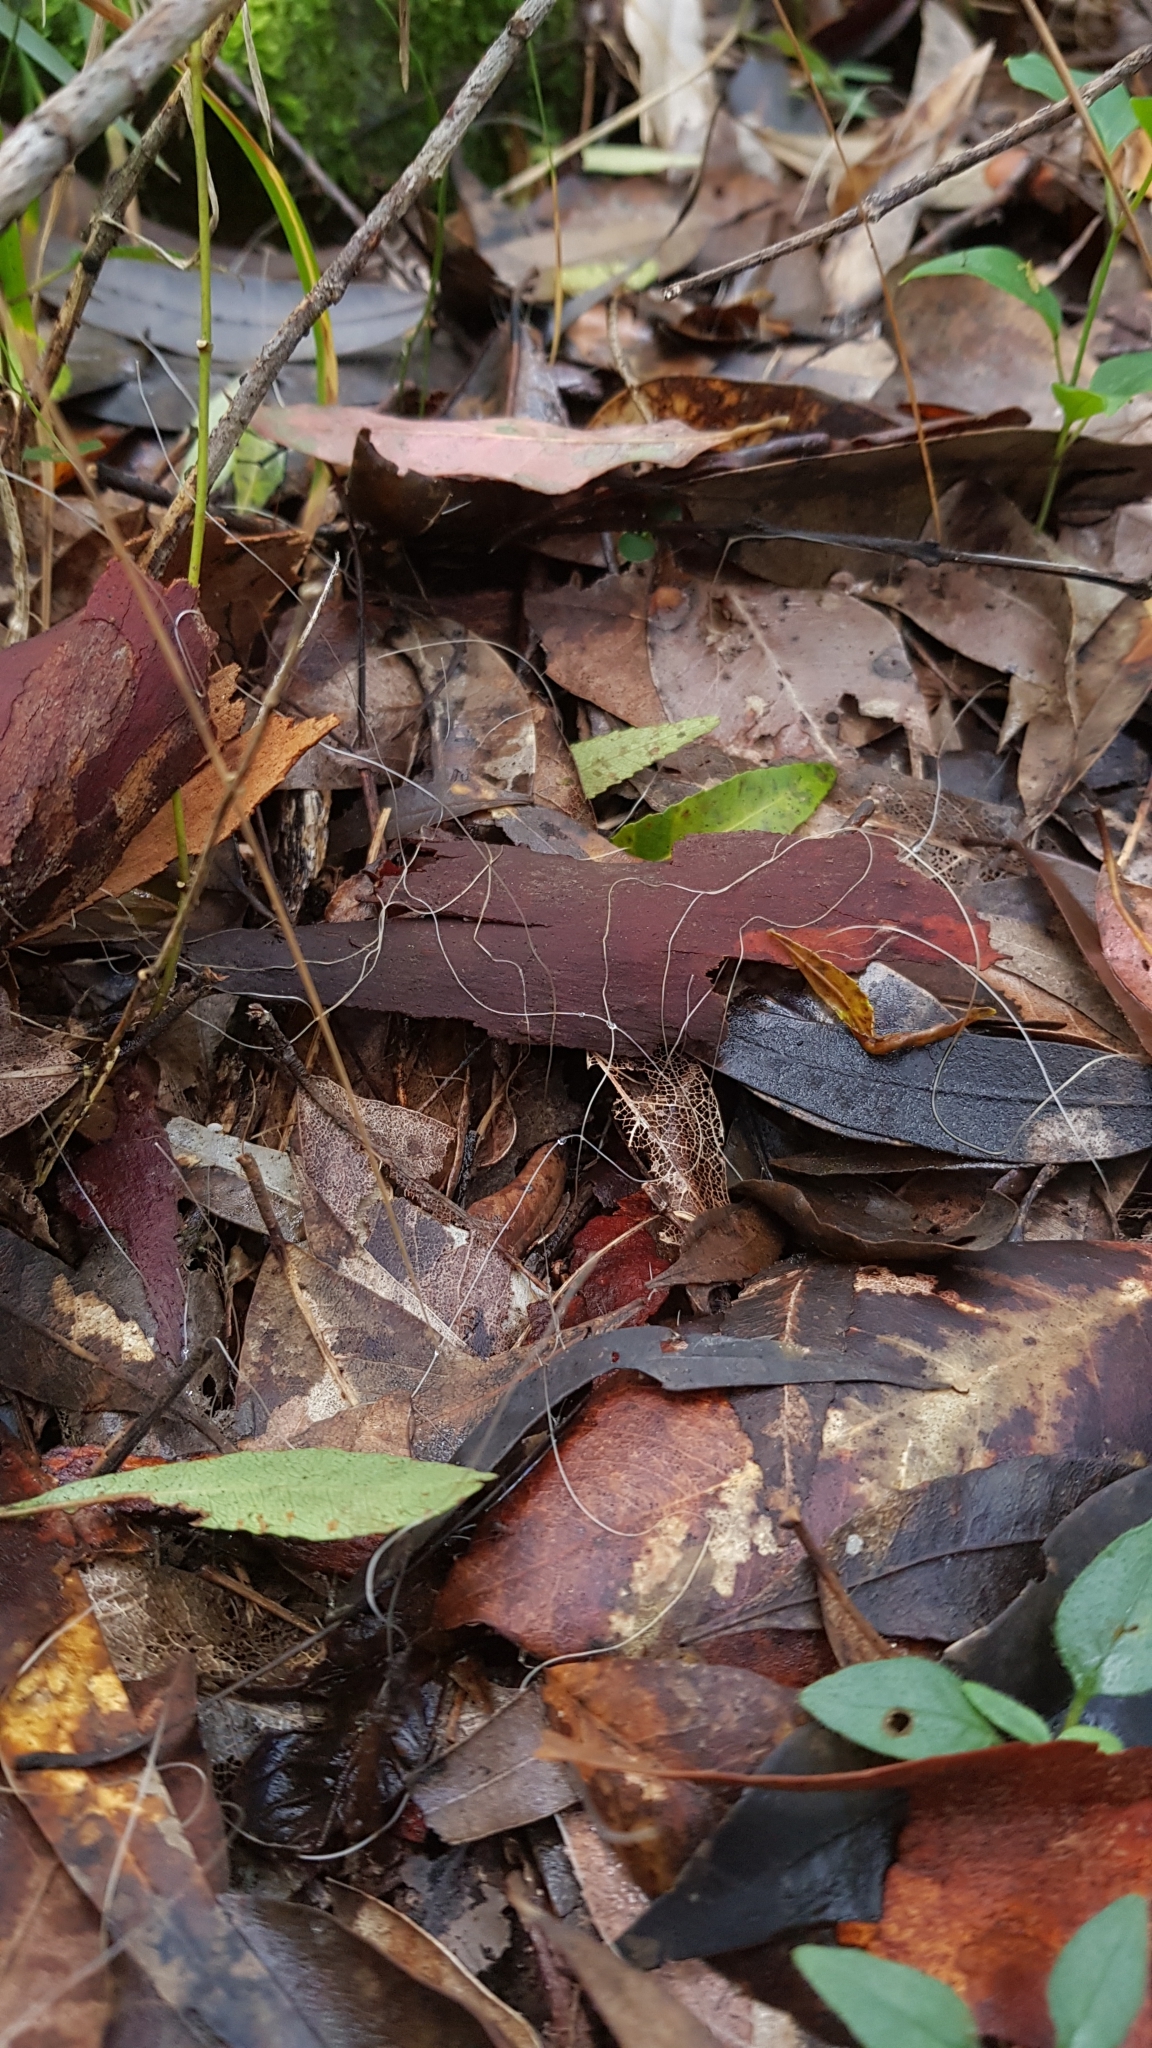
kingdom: Fungi
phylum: Basidiomycota
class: Agaricomycetes
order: Agaricales
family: Mycenaceae
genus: Mycena
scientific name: Mycena cystidiosa
